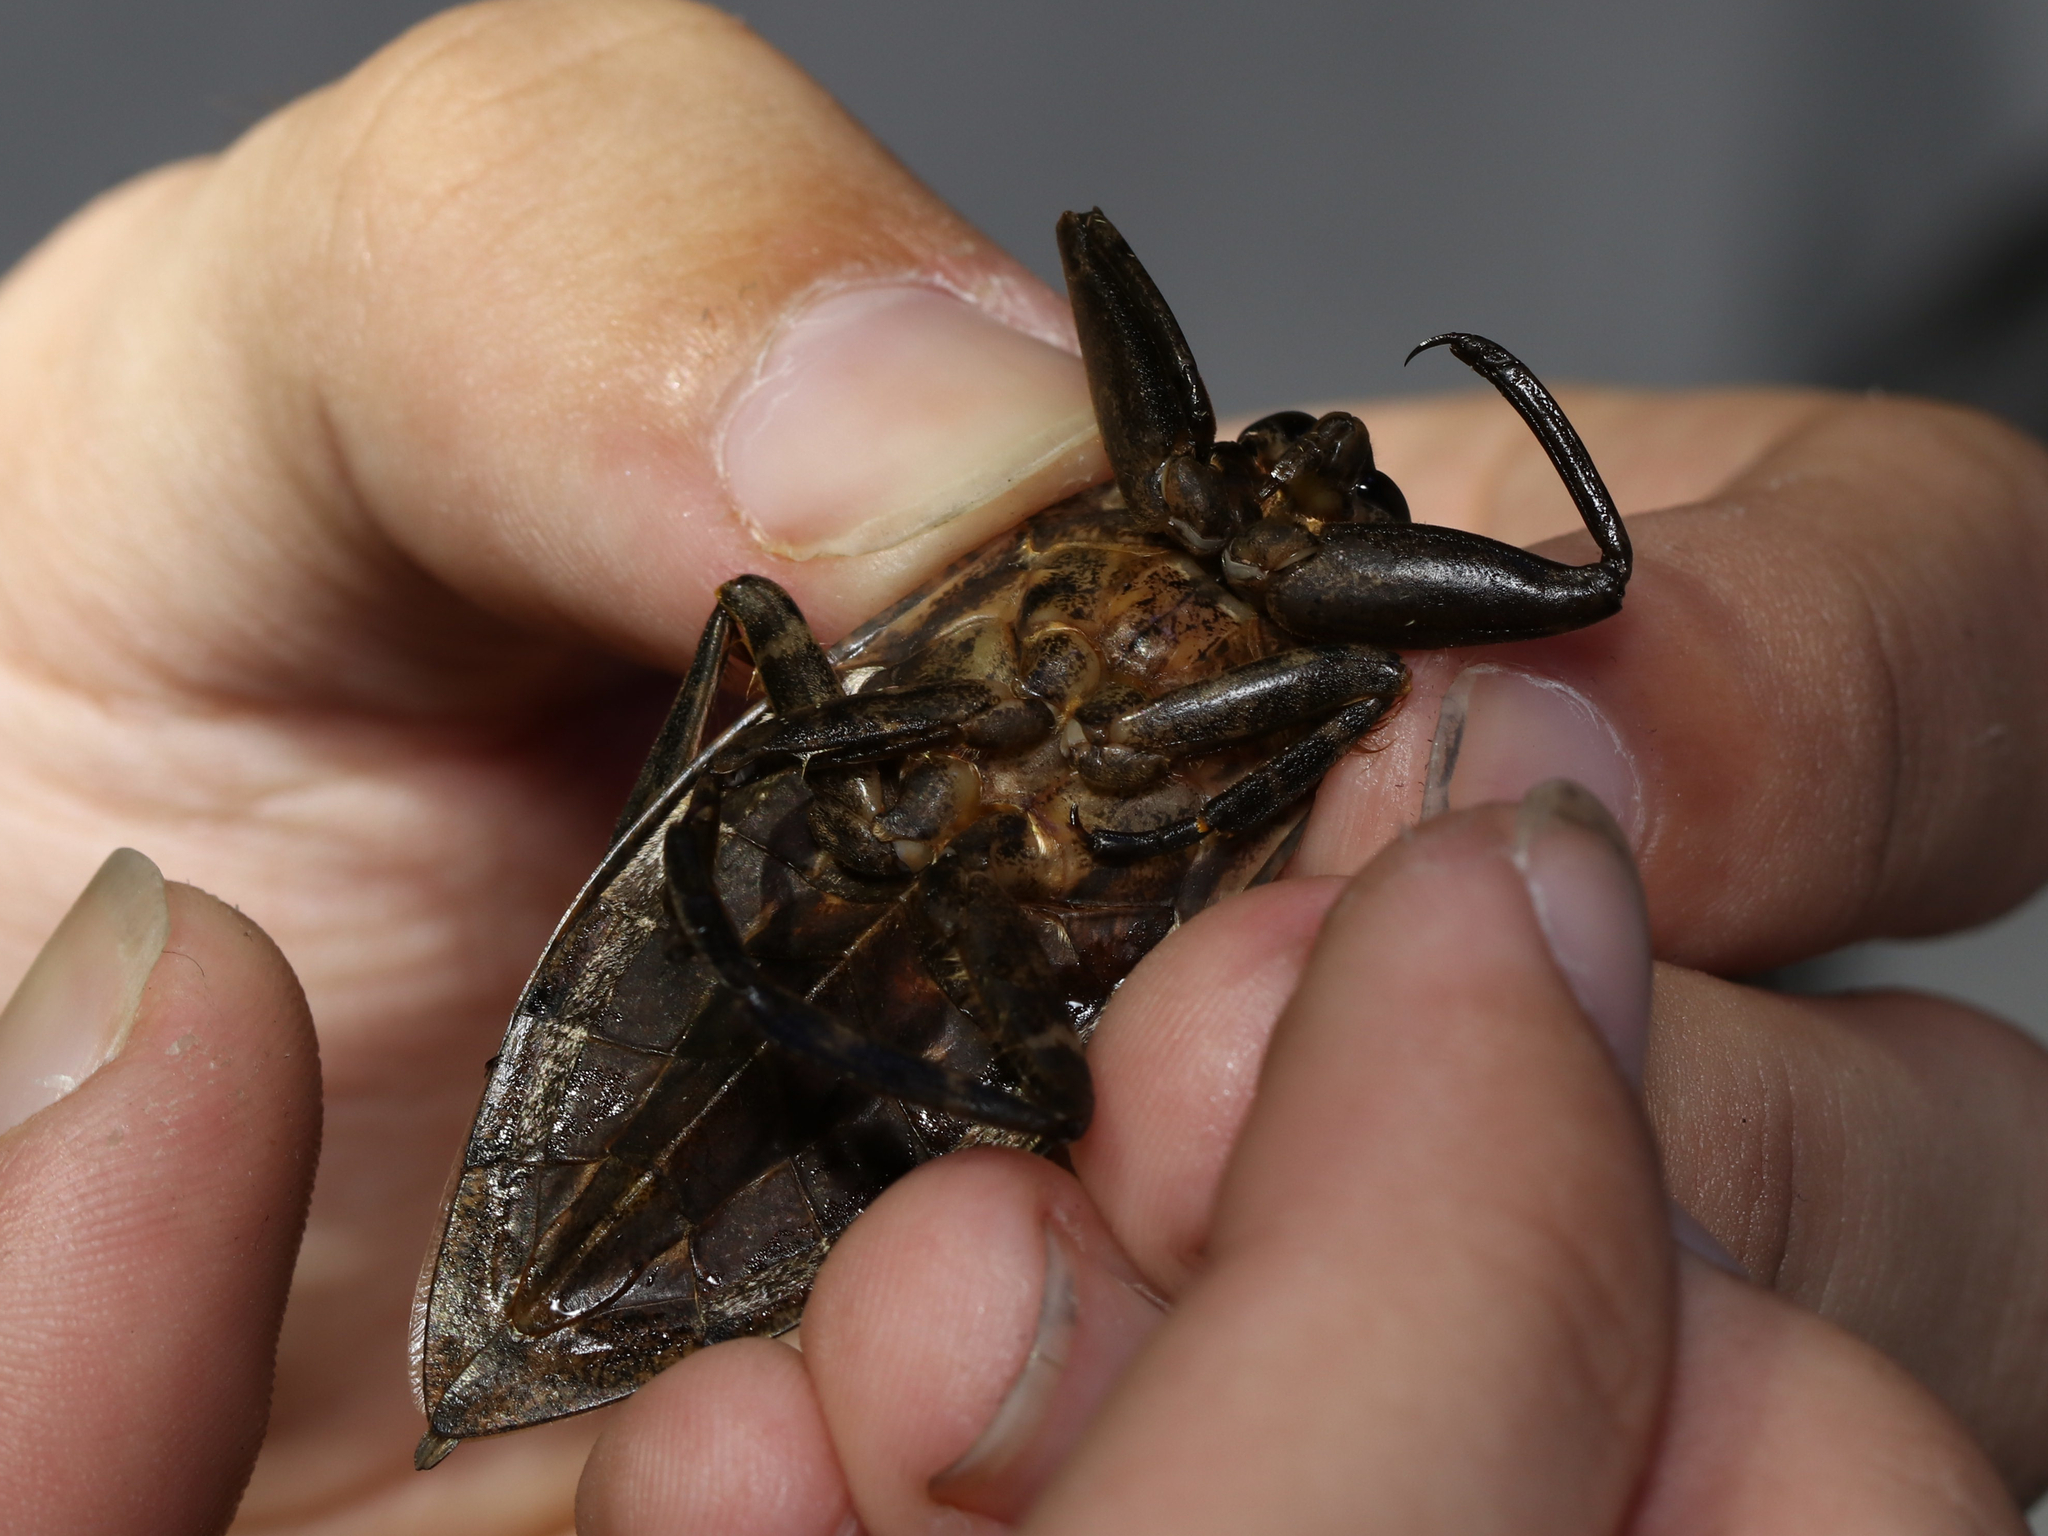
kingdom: Animalia
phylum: Arthropoda
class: Insecta
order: Hemiptera
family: Belostomatidae
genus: Lethocerus
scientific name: Lethocerus americanus
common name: Giant water bug
